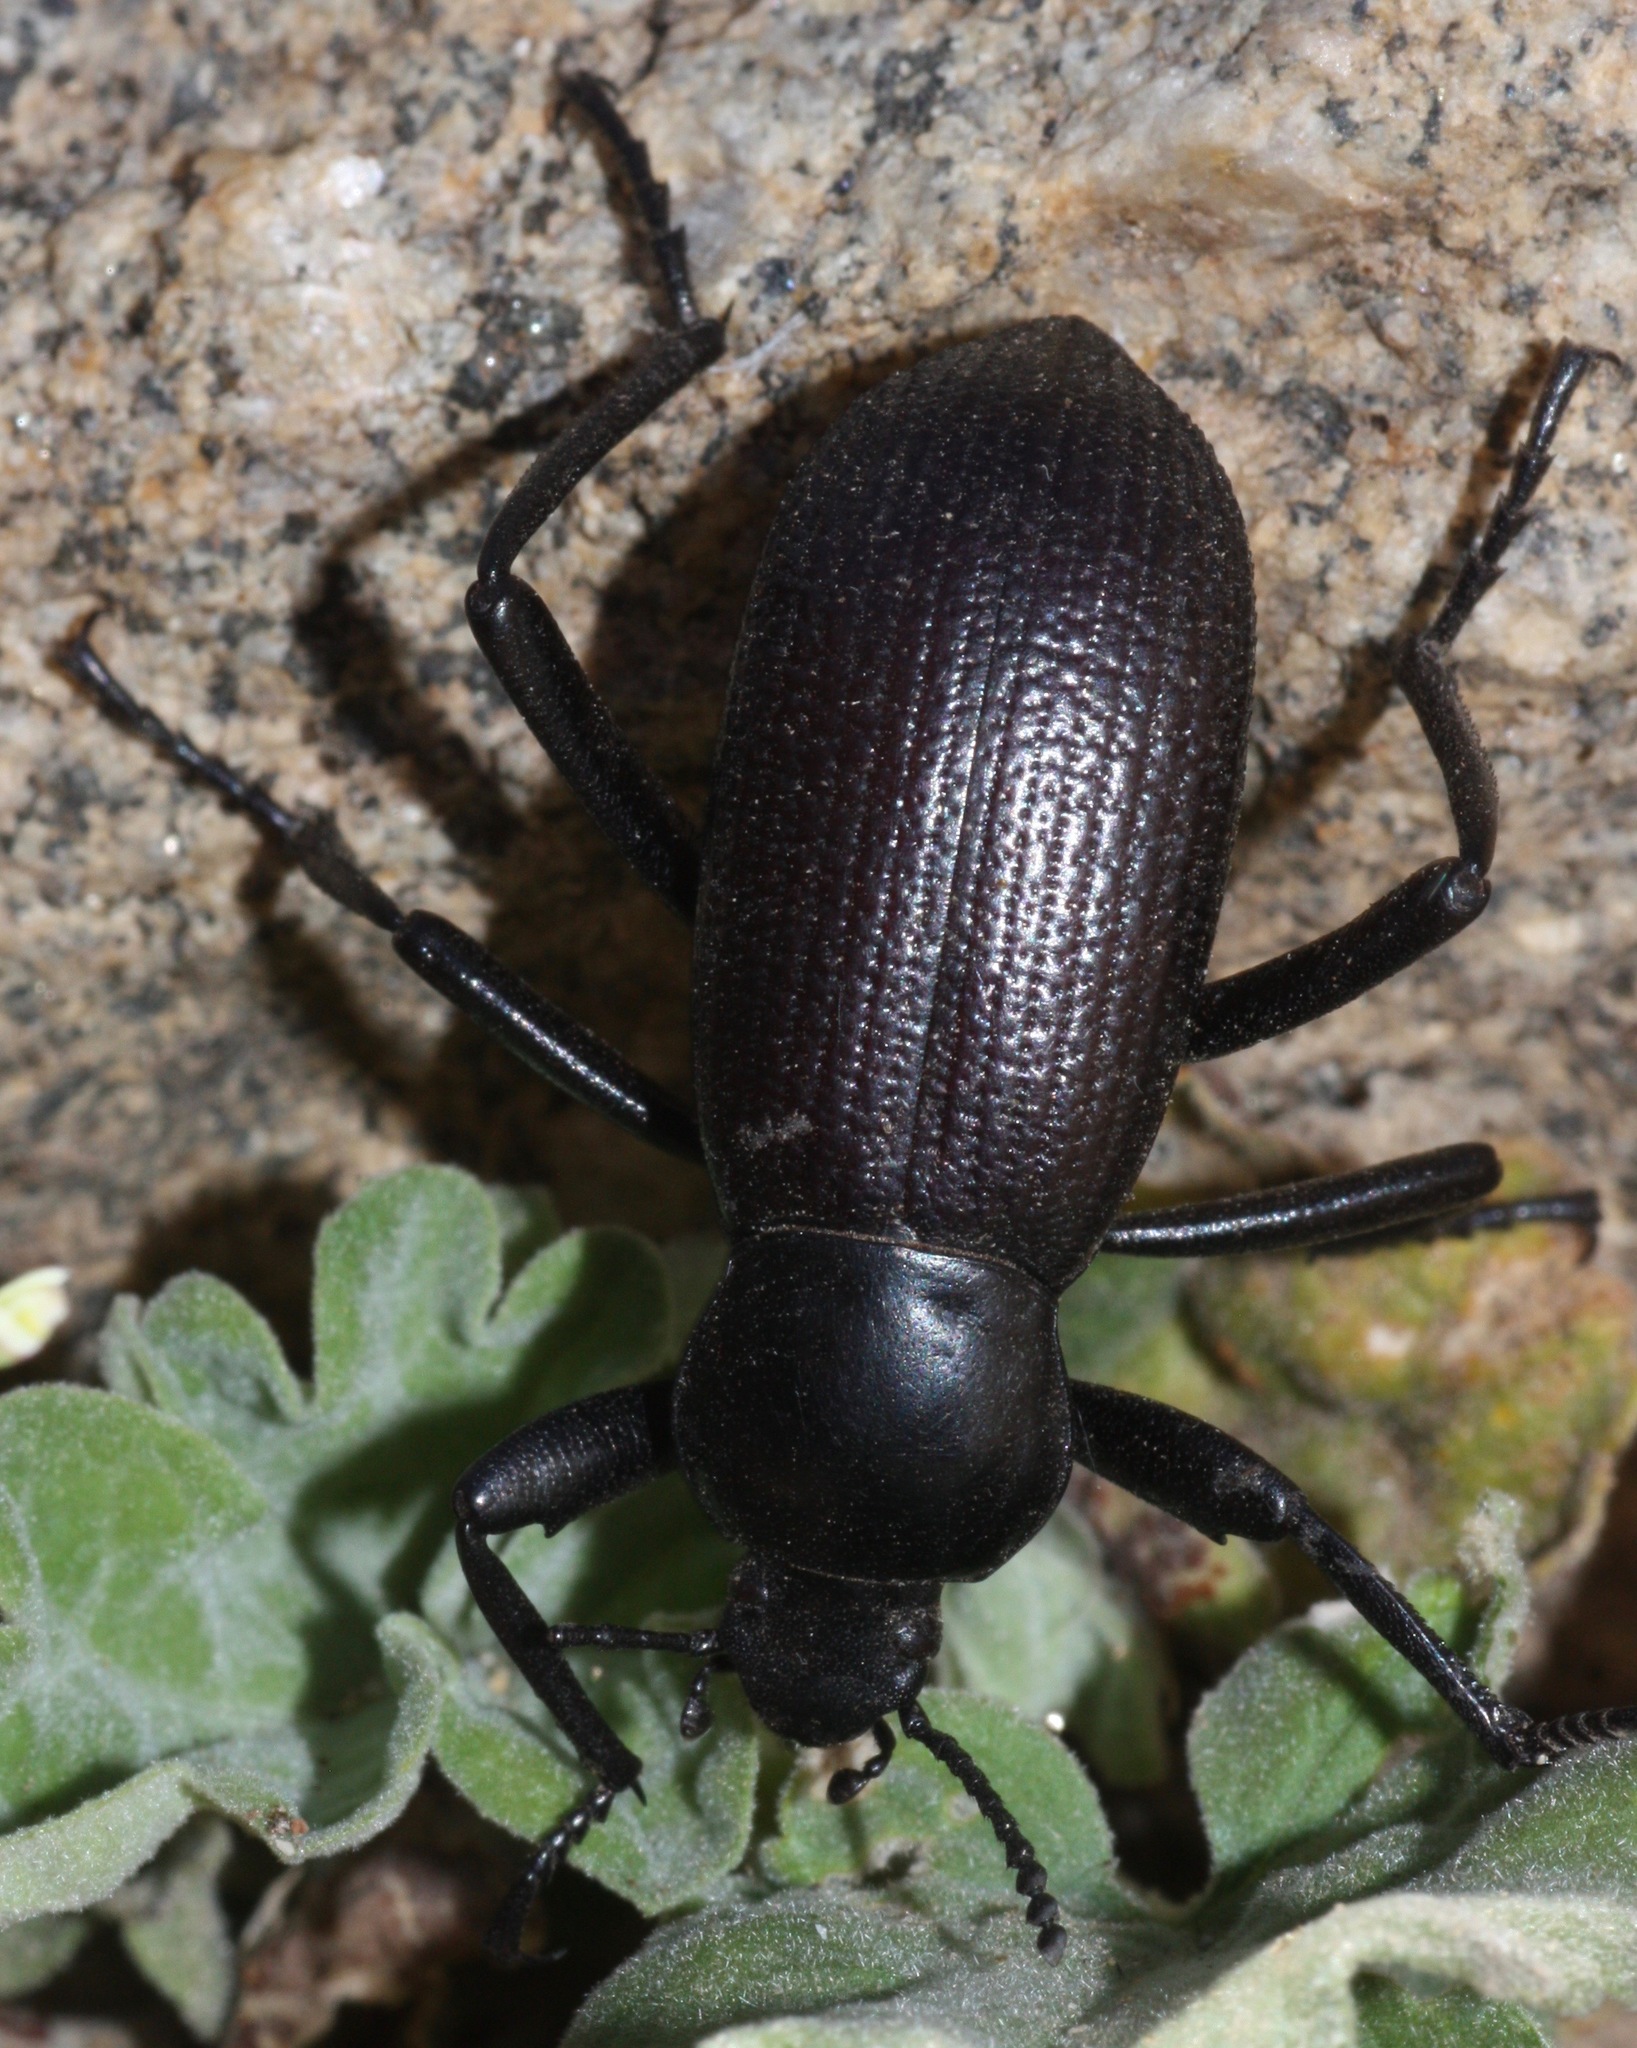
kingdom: Animalia
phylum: Arthropoda
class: Insecta
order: Coleoptera
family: Tenebrionidae
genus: Eleodes
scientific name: Eleodes obscura
